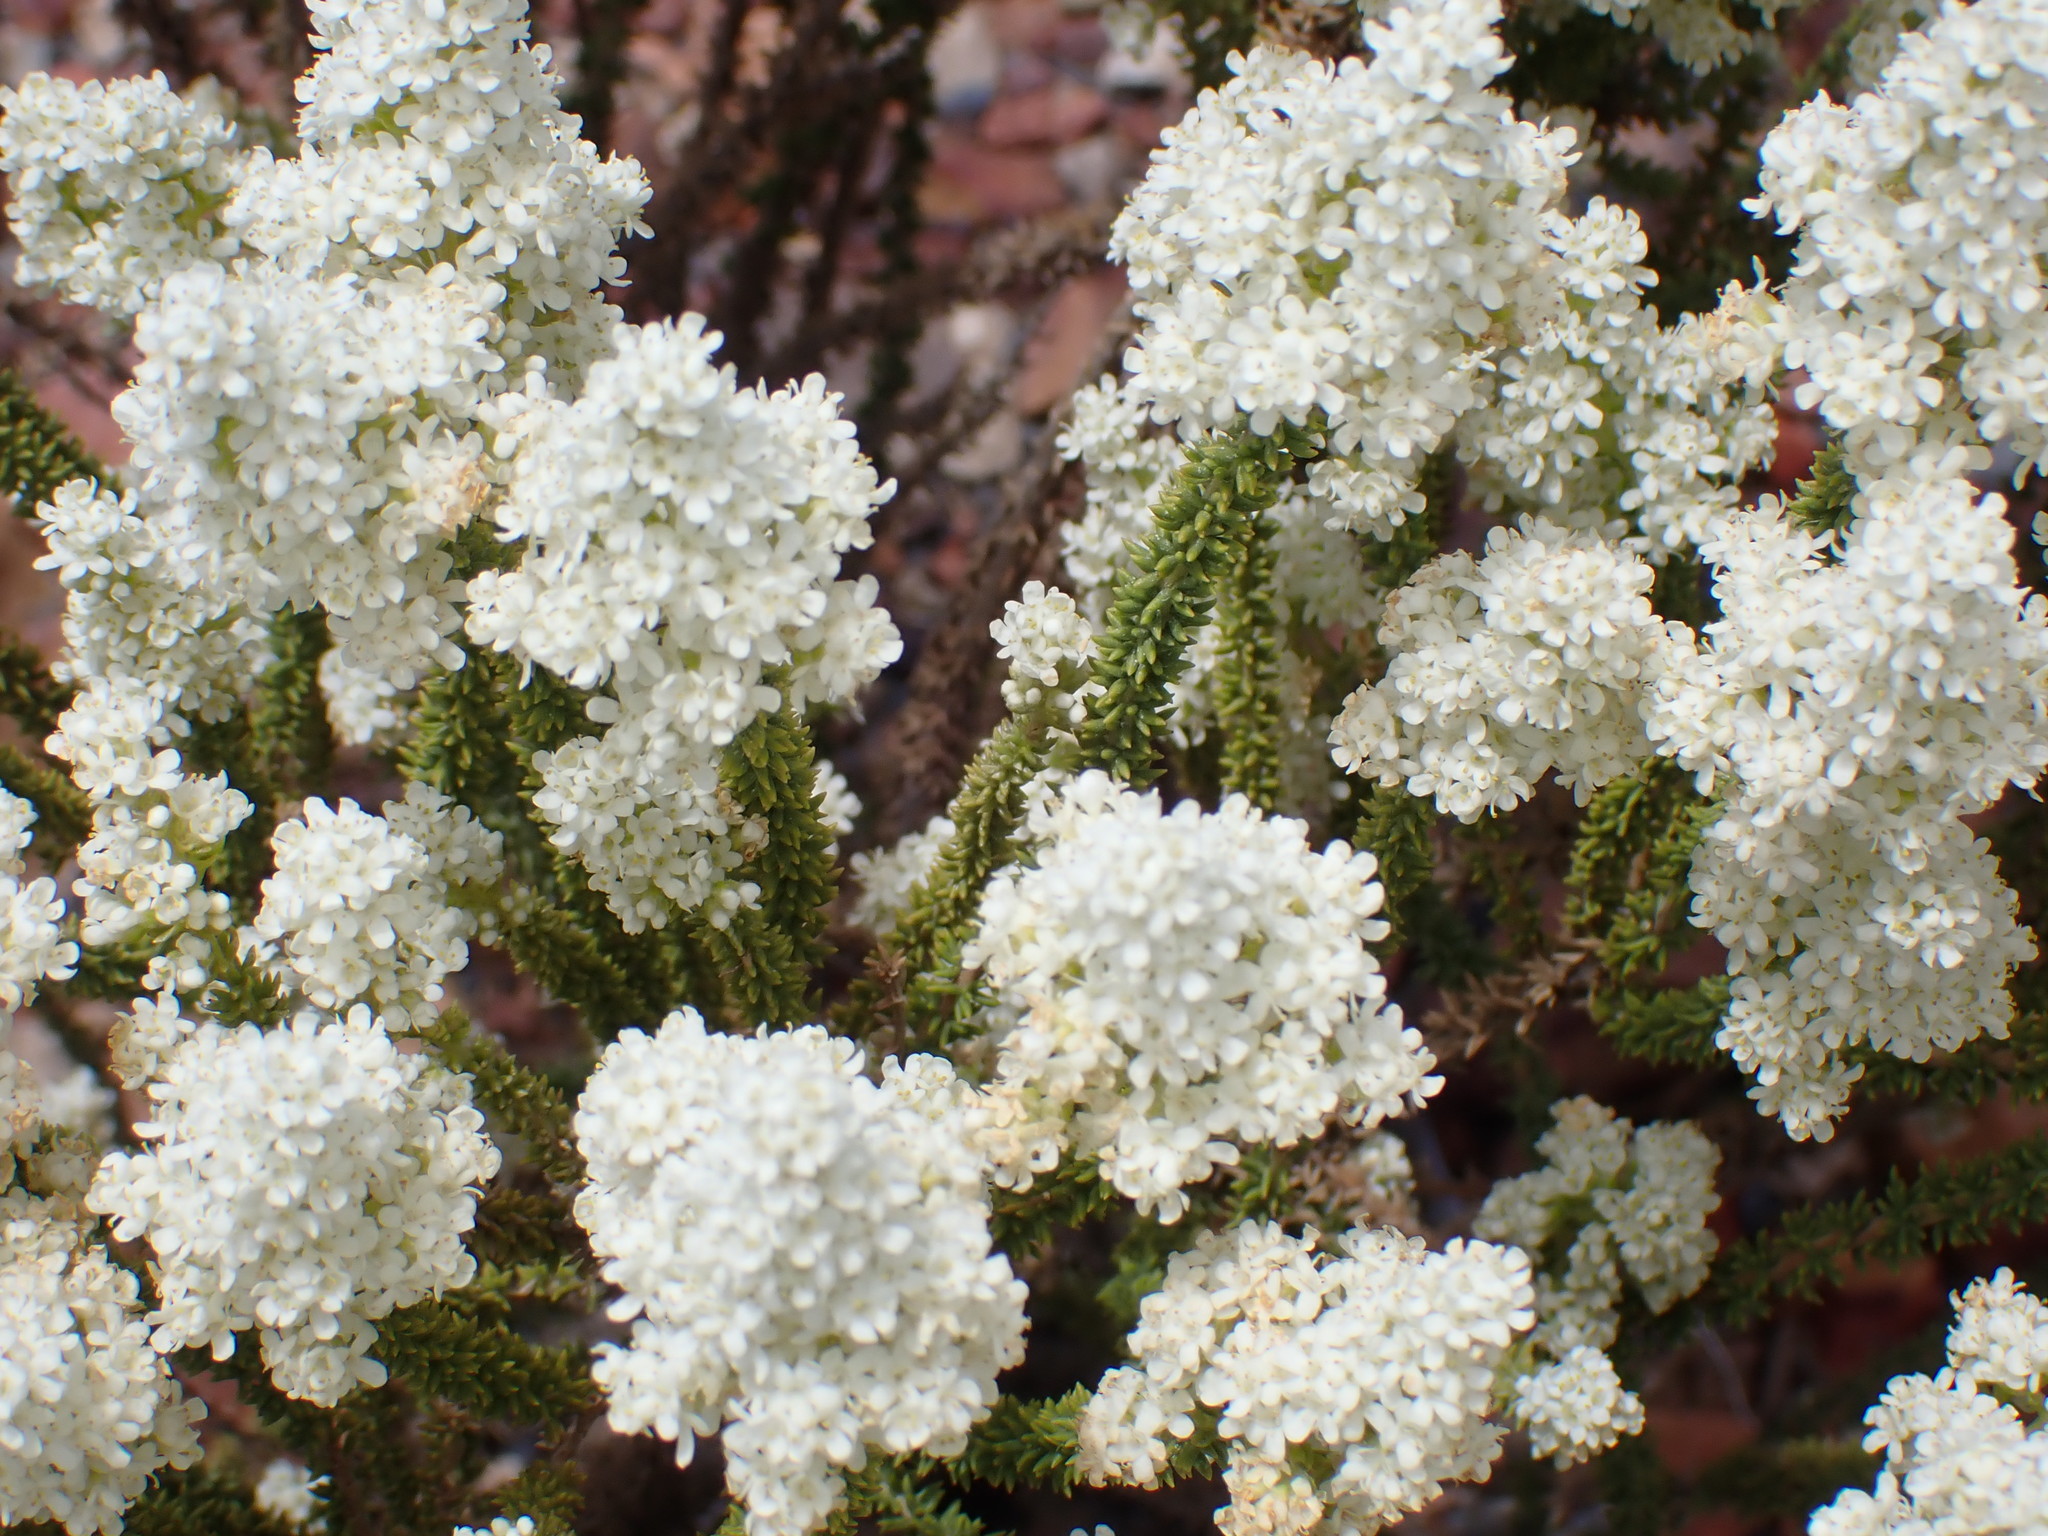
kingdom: Plantae
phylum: Tracheophyta
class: Magnoliopsida
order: Lamiales
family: Scrophulariaceae
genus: Selago
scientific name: Selago myriophylla
